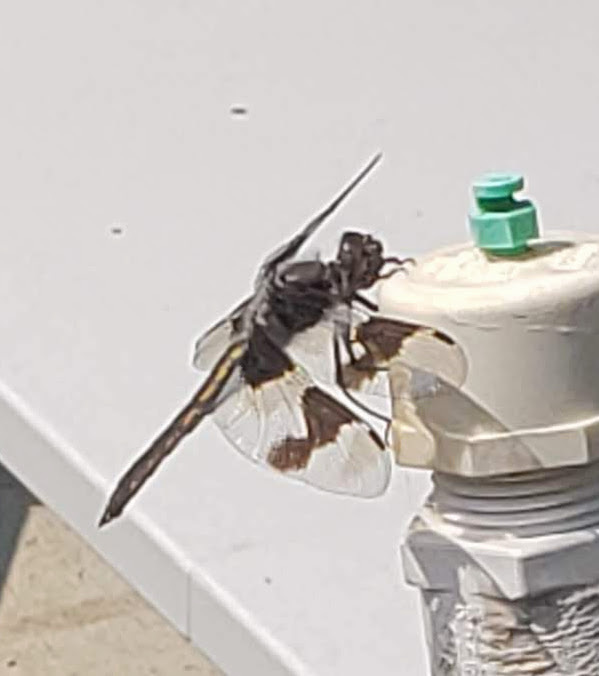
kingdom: Animalia
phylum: Arthropoda
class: Insecta
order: Odonata
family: Libellulidae
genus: Libellula
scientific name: Libellula forensis
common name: Eight-spotted skimmer
